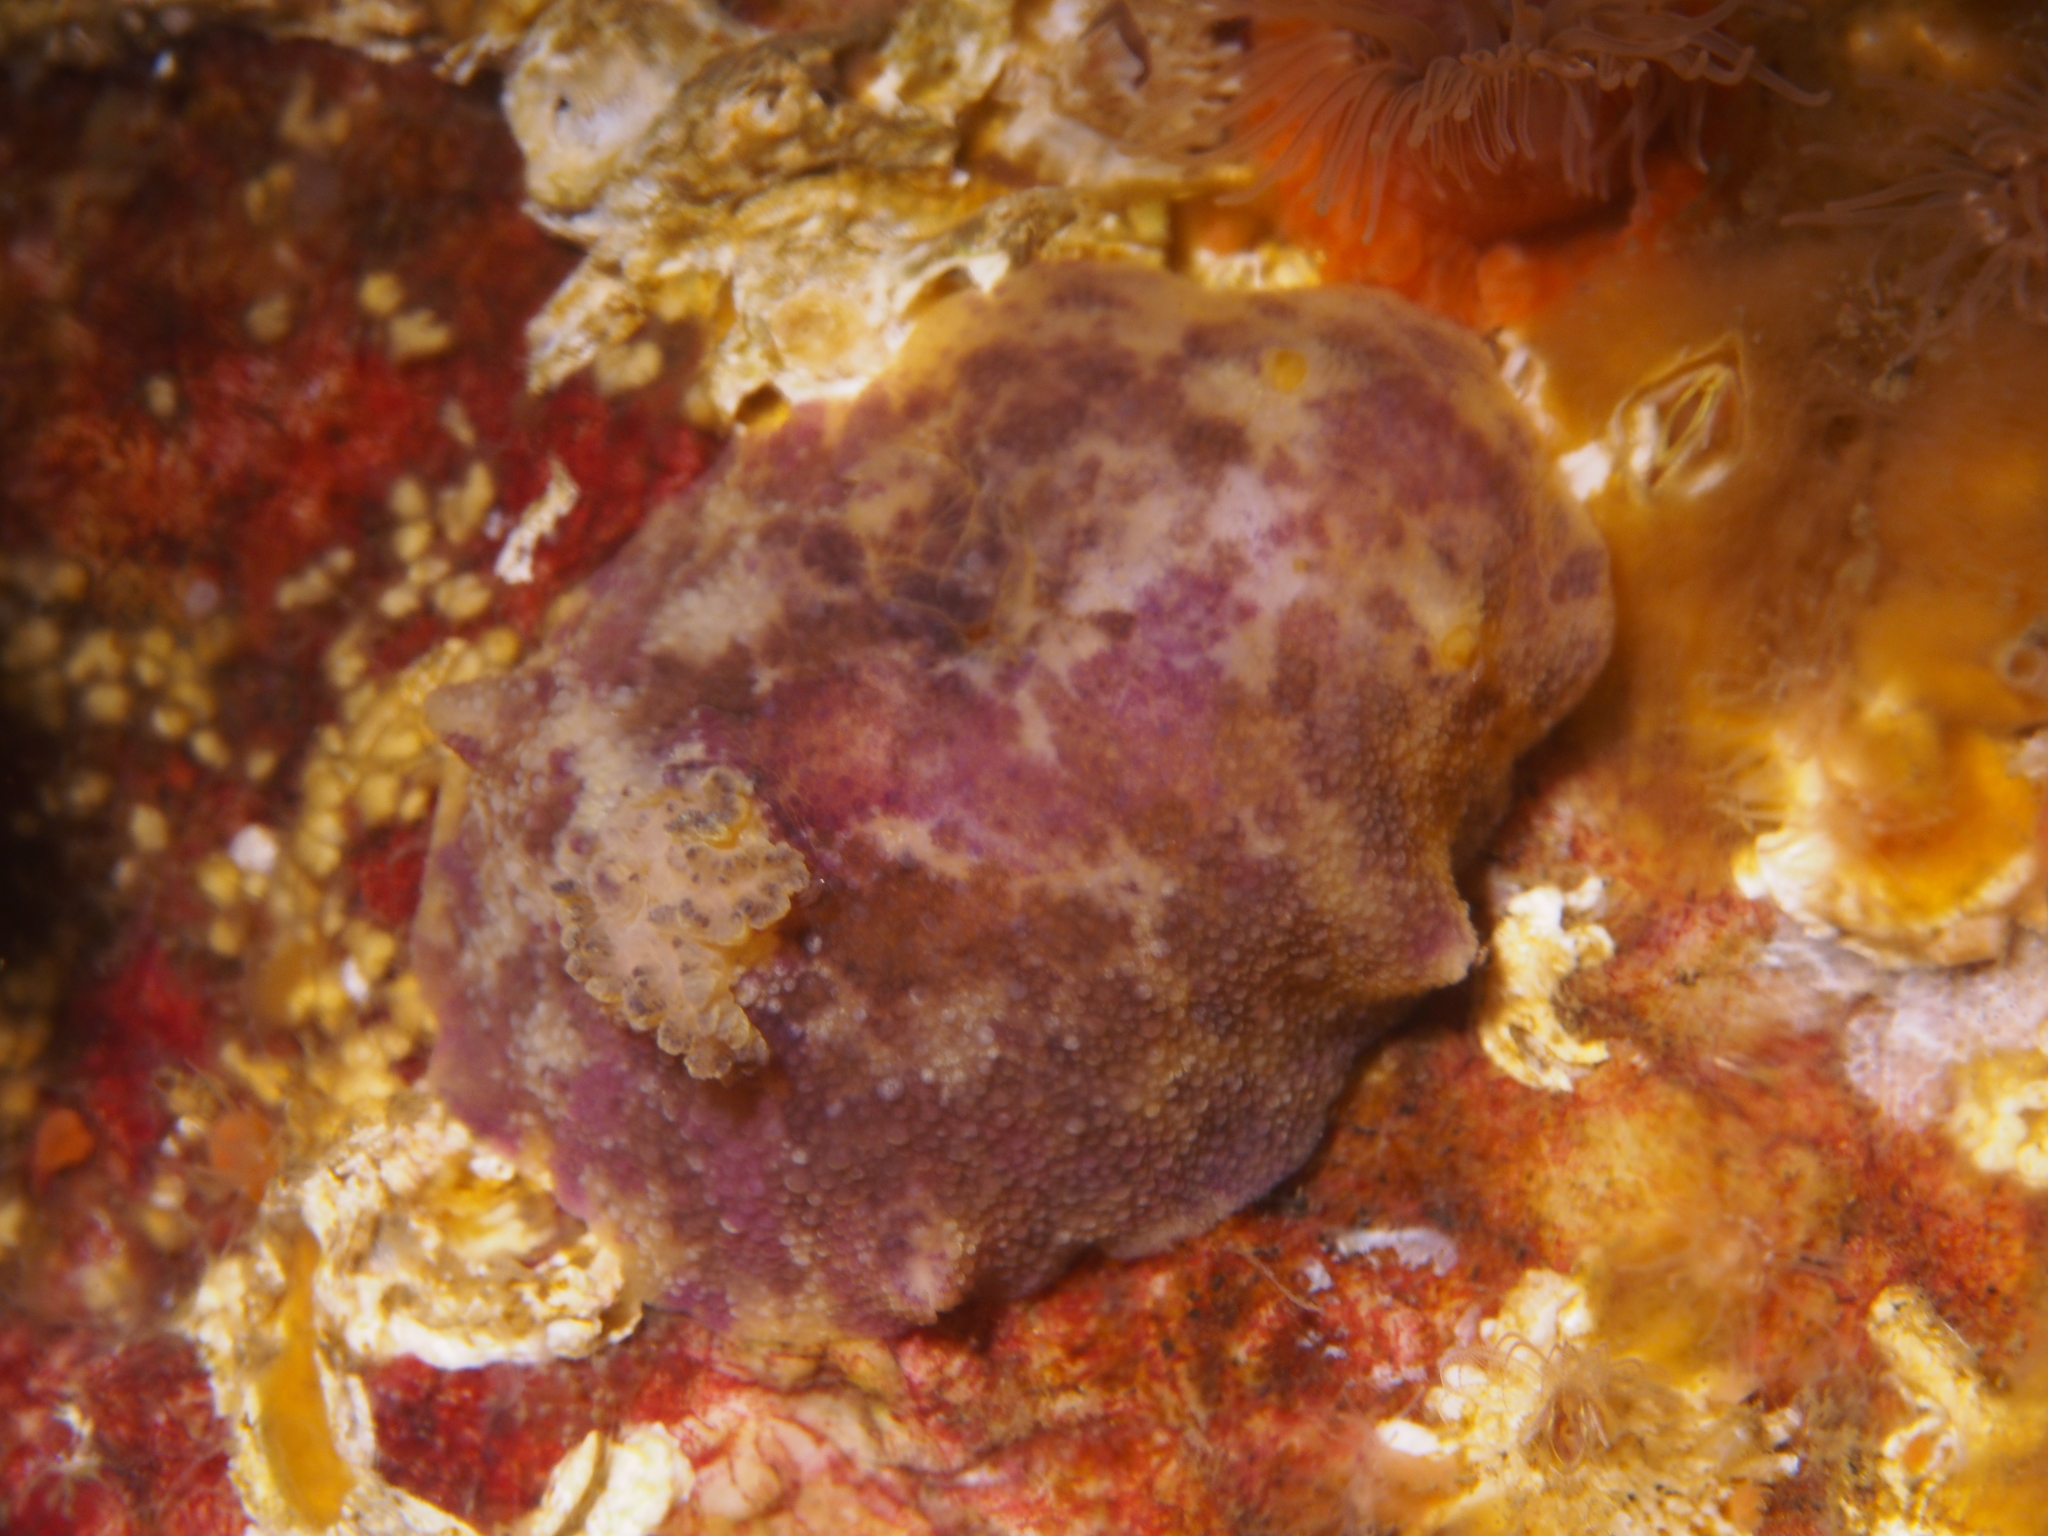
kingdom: Animalia
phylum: Mollusca
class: Gastropoda
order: Nudibranchia
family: Dorididae
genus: Doris
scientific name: Doris pseudoargus
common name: Sea lemon
